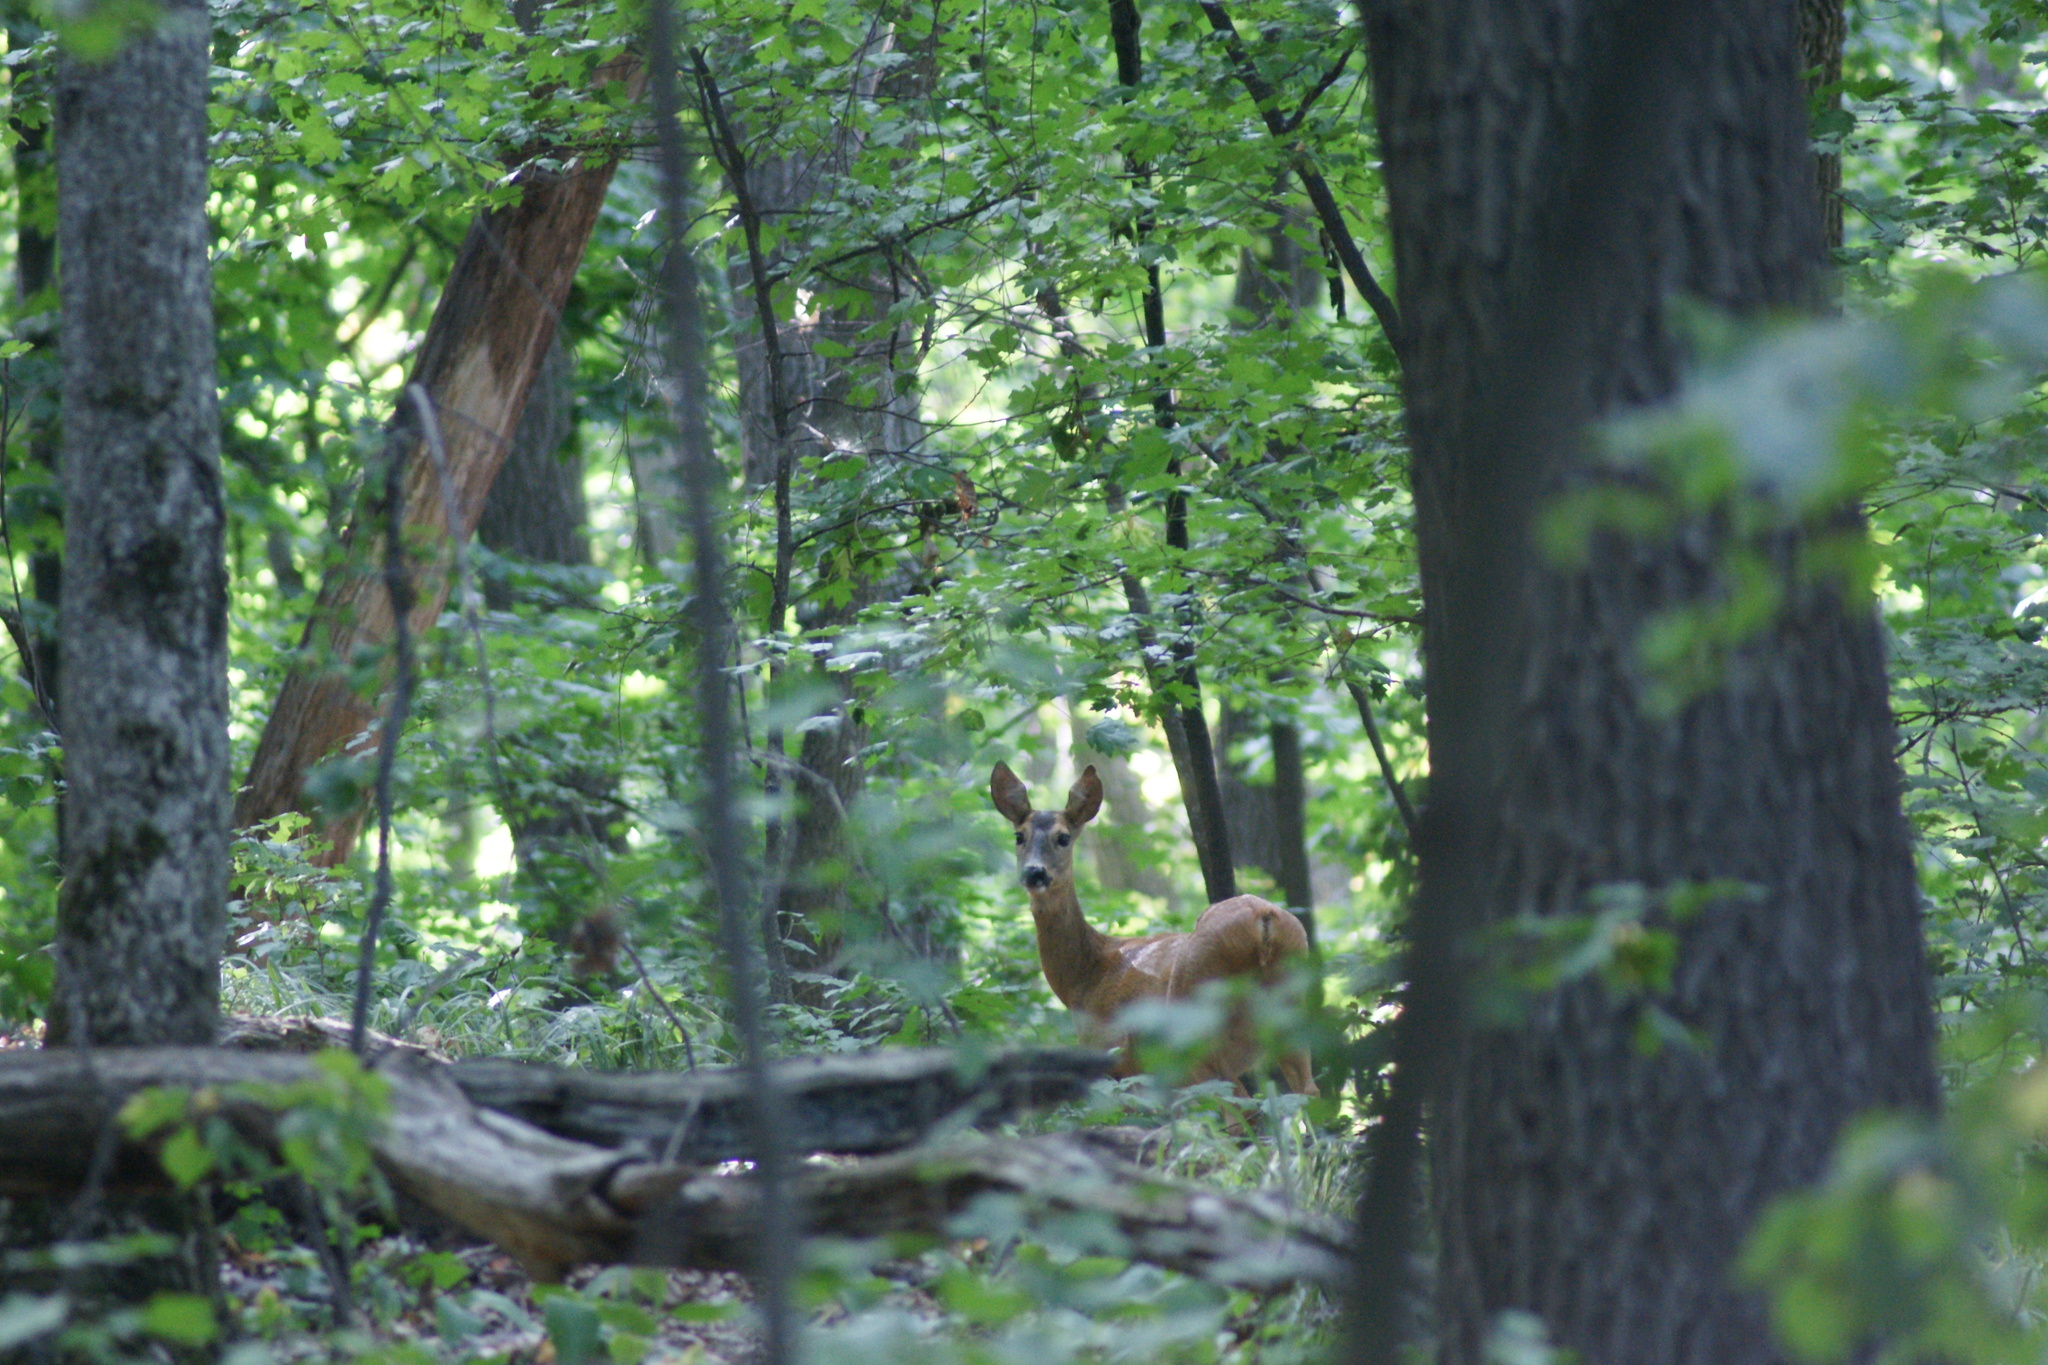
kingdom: Animalia
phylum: Chordata
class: Mammalia
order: Artiodactyla
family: Cervidae
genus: Capreolus
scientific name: Capreolus capreolus
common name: Western roe deer
